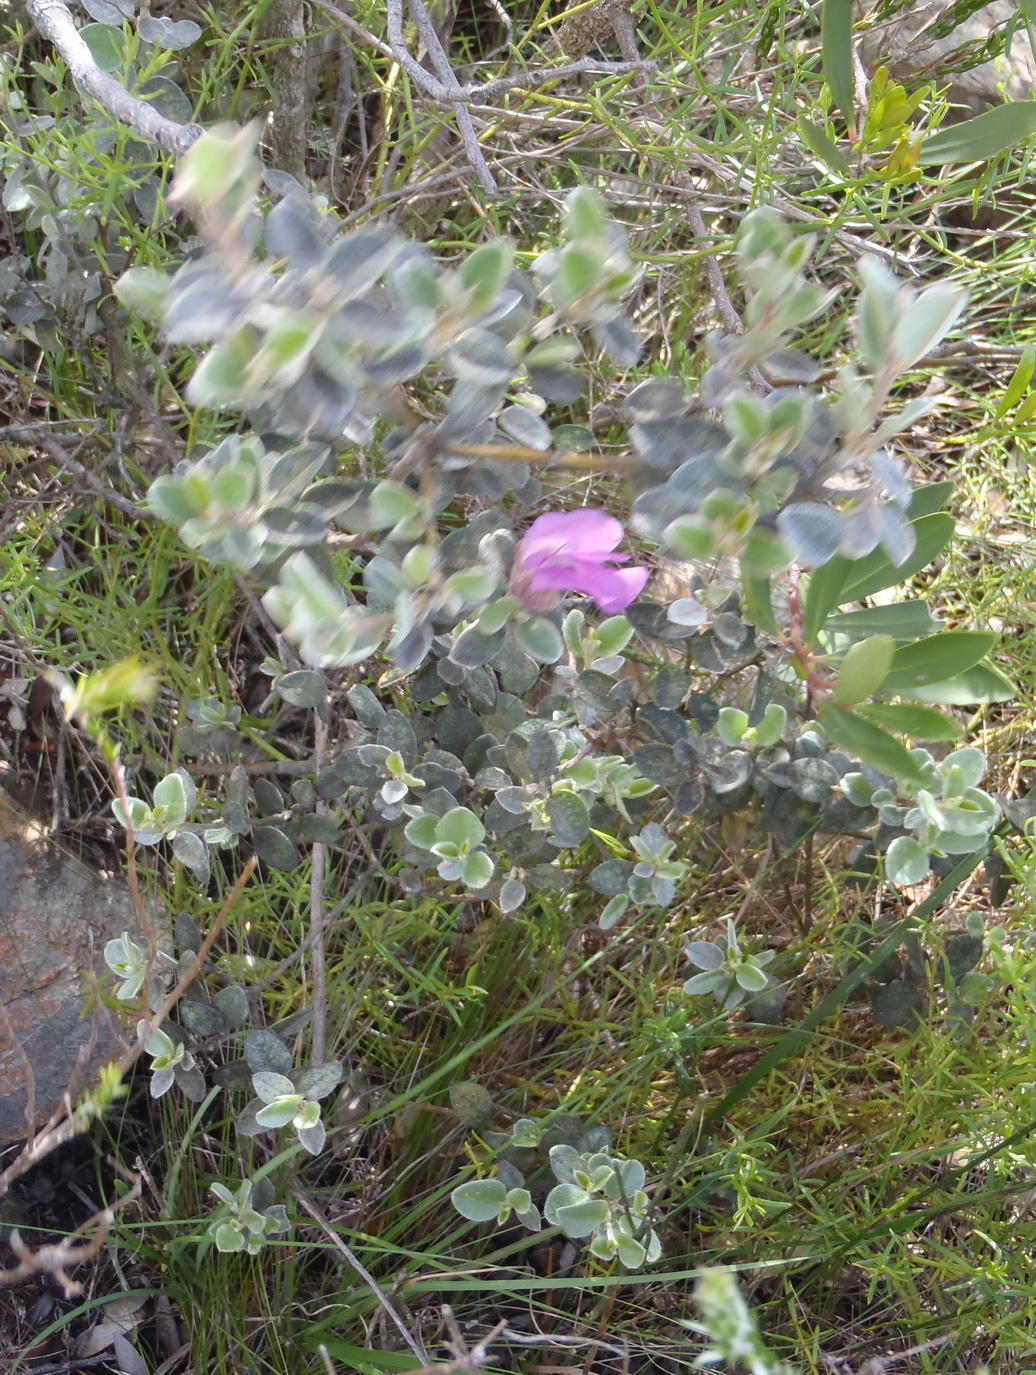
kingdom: Plantae
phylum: Tracheophyta
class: Magnoliopsida
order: Fabales
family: Fabaceae
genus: Podalyria
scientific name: Podalyria burchellii
